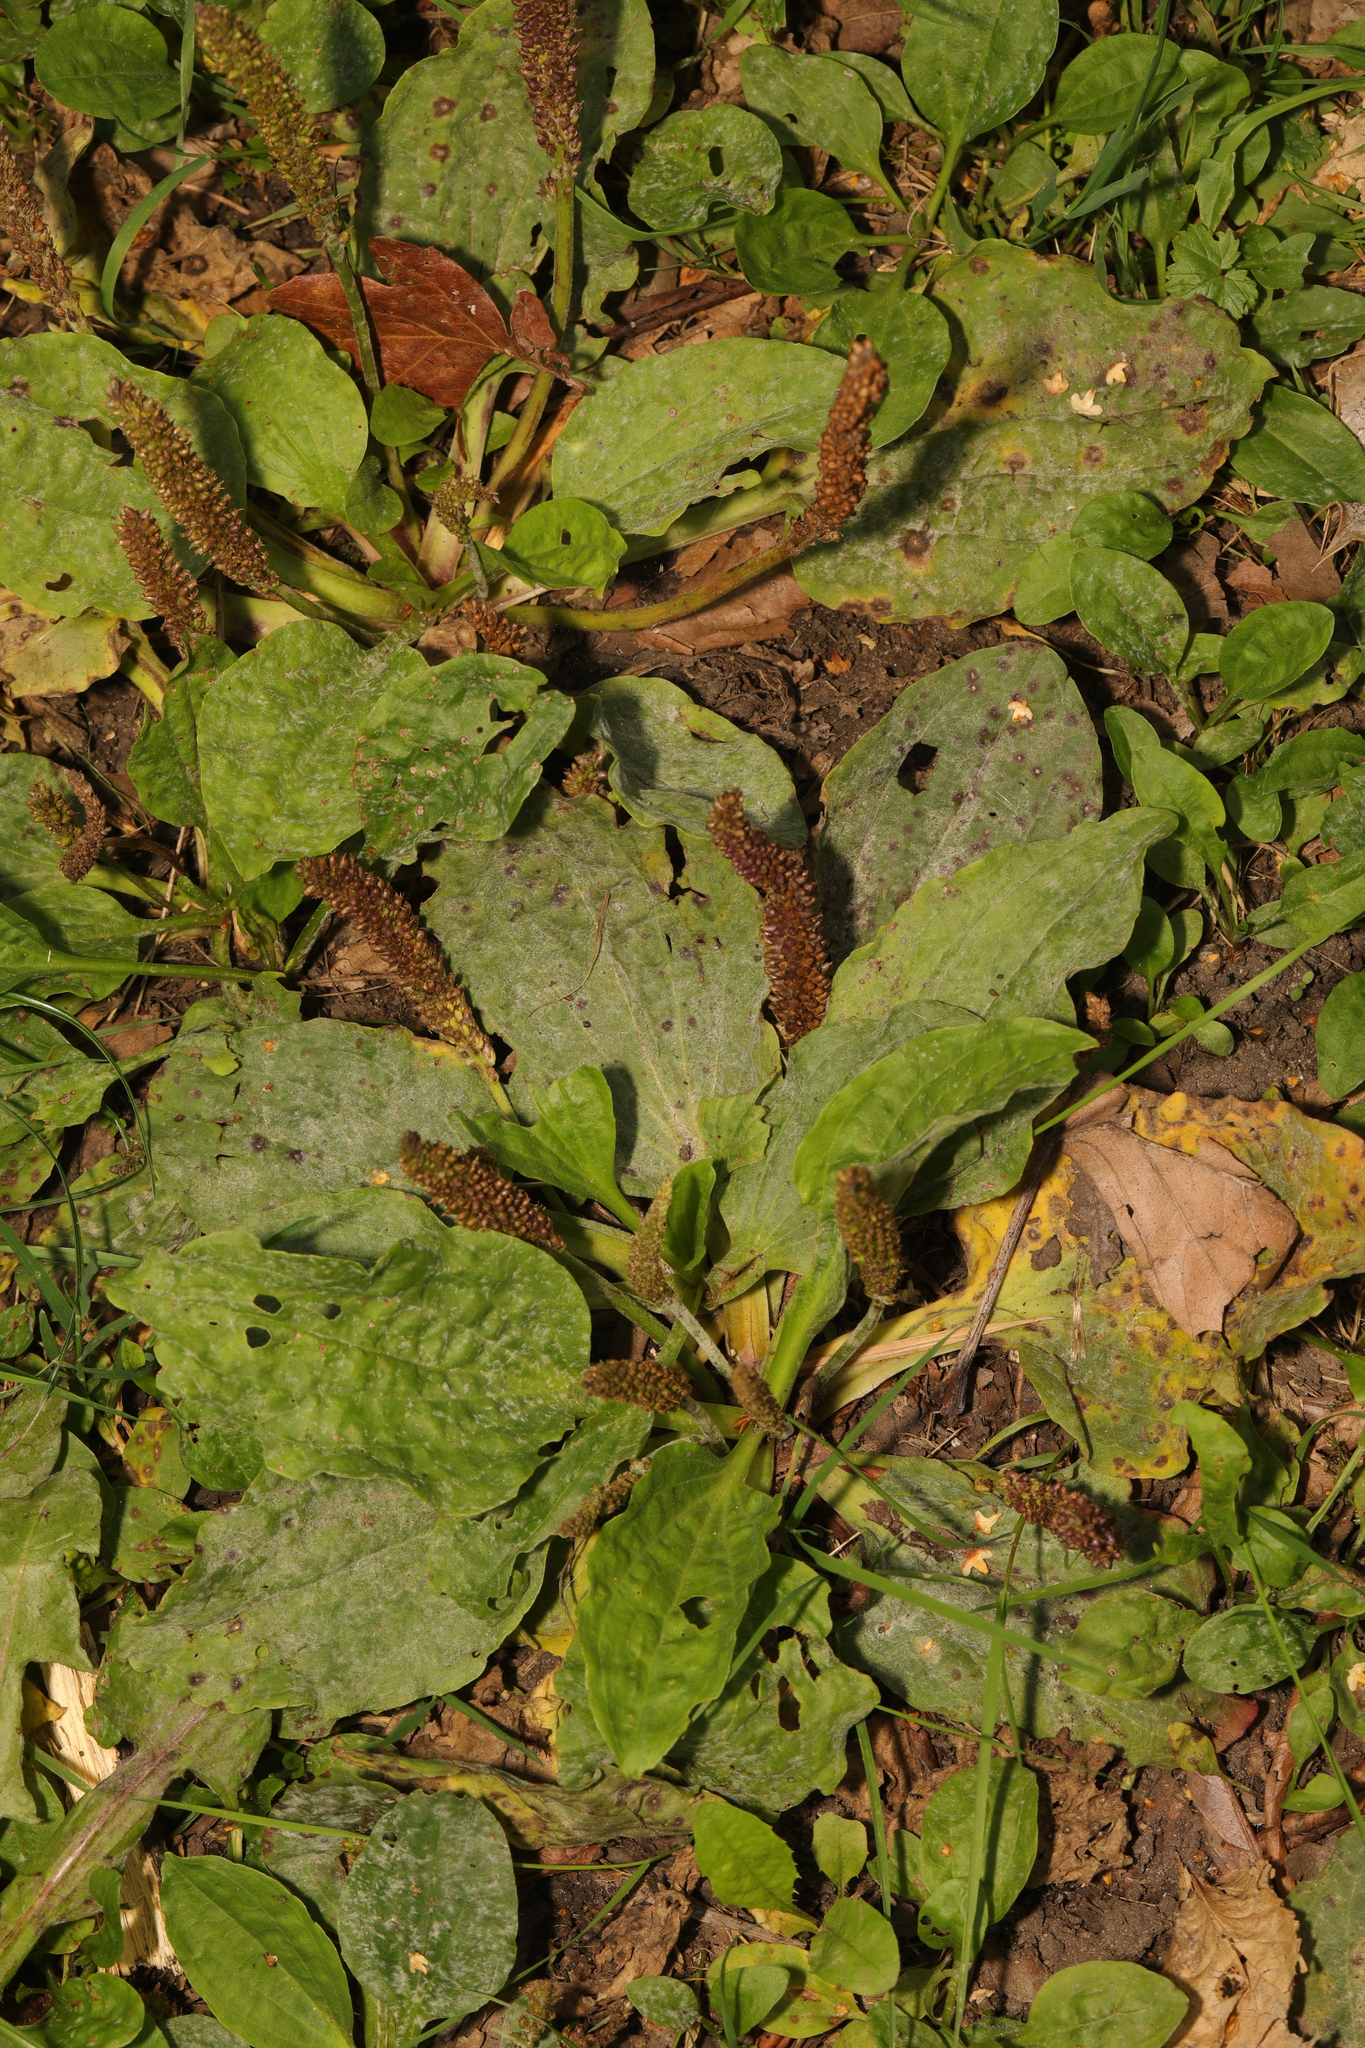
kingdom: Plantae
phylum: Tracheophyta
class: Magnoliopsida
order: Lamiales
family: Plantaginaceae
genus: Plantago
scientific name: Plantago major
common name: Common plantain
